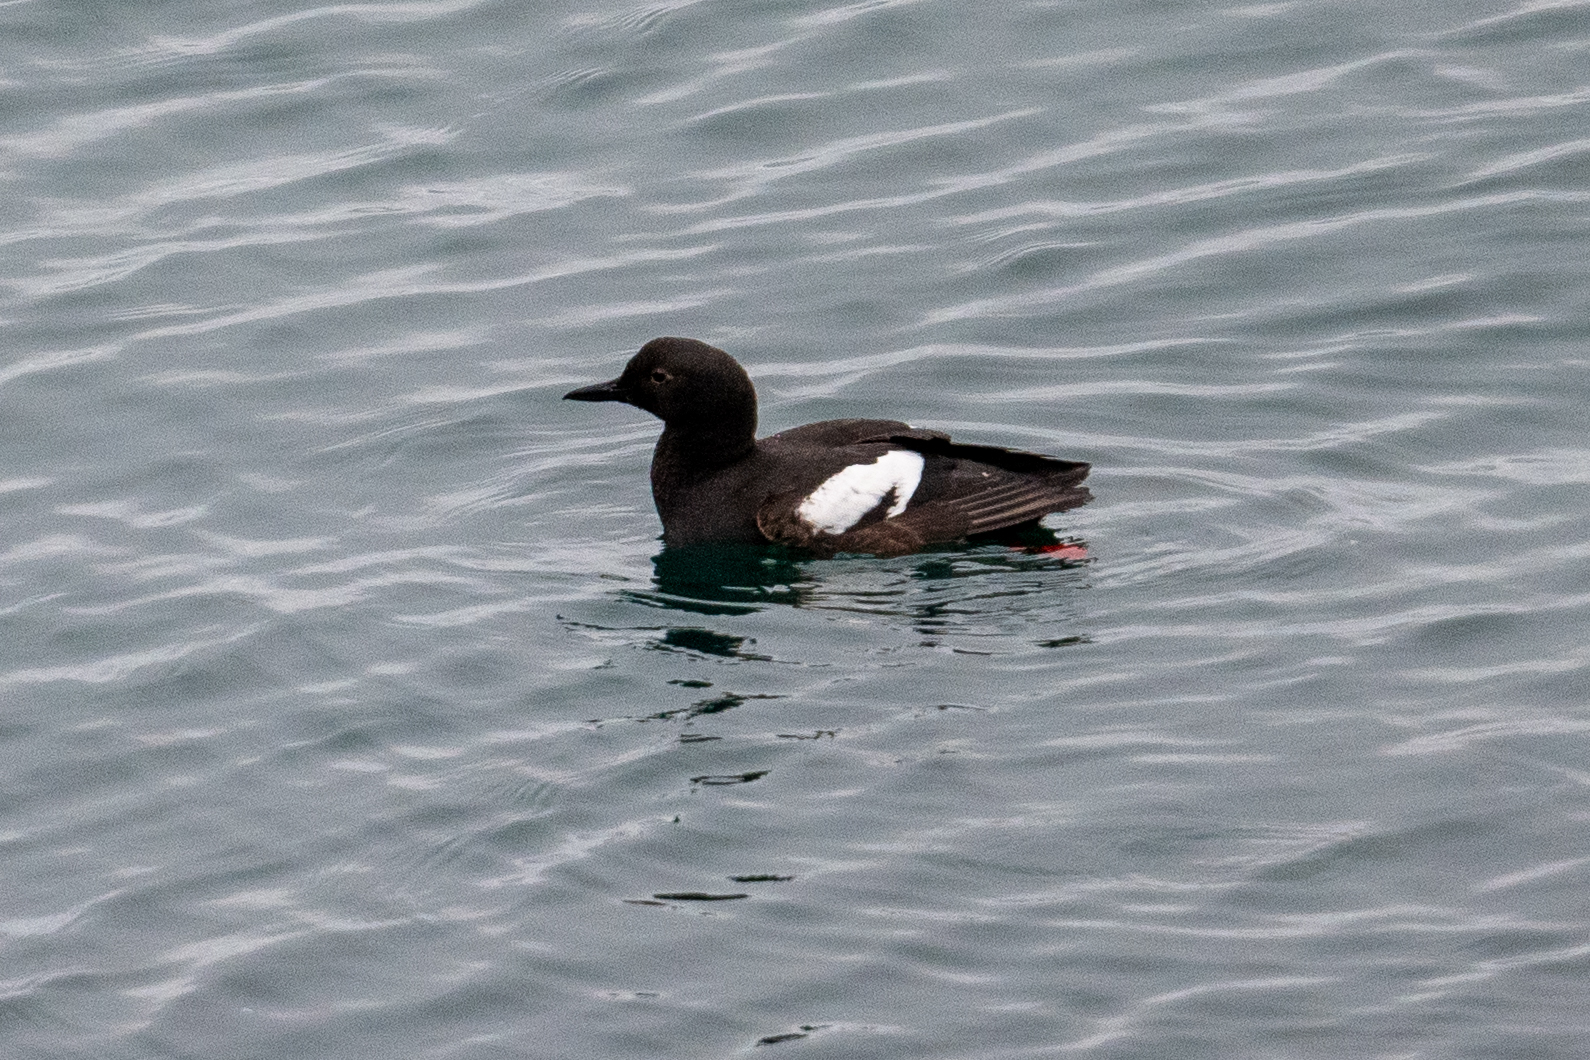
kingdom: Animalia
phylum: Chordata
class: Aves
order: Charadriiformes
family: Alcidae
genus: Cepphus
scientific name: Cepphus columba
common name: Pigeon guillemot
